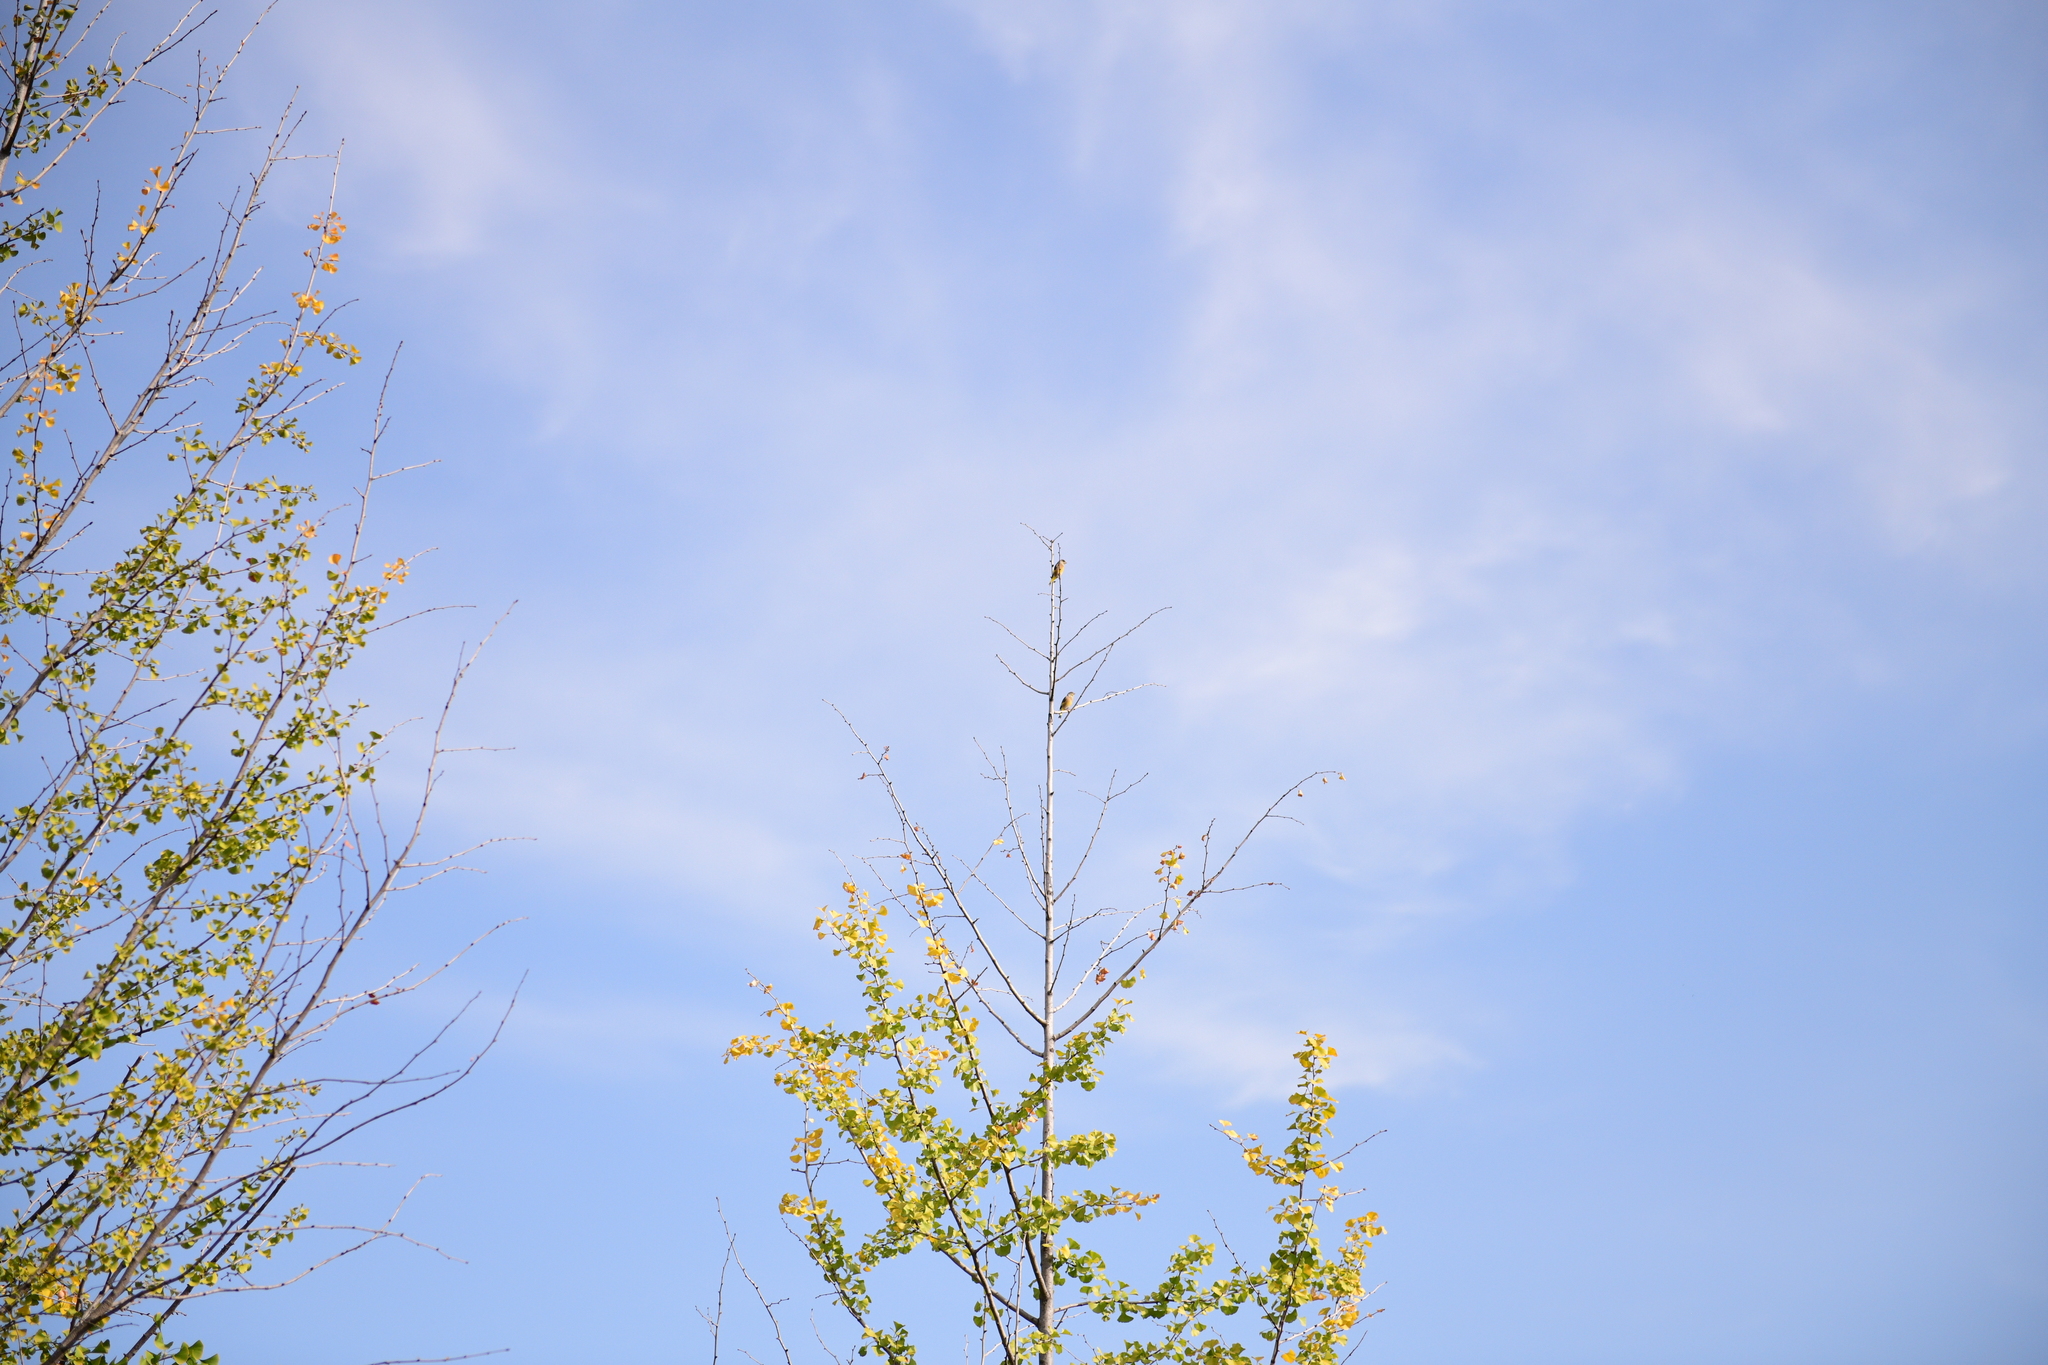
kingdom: Plantae
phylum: Tracheophyta
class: Liliopsida
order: Poales
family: Poaceae
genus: Chloris
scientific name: Chloris sinica
